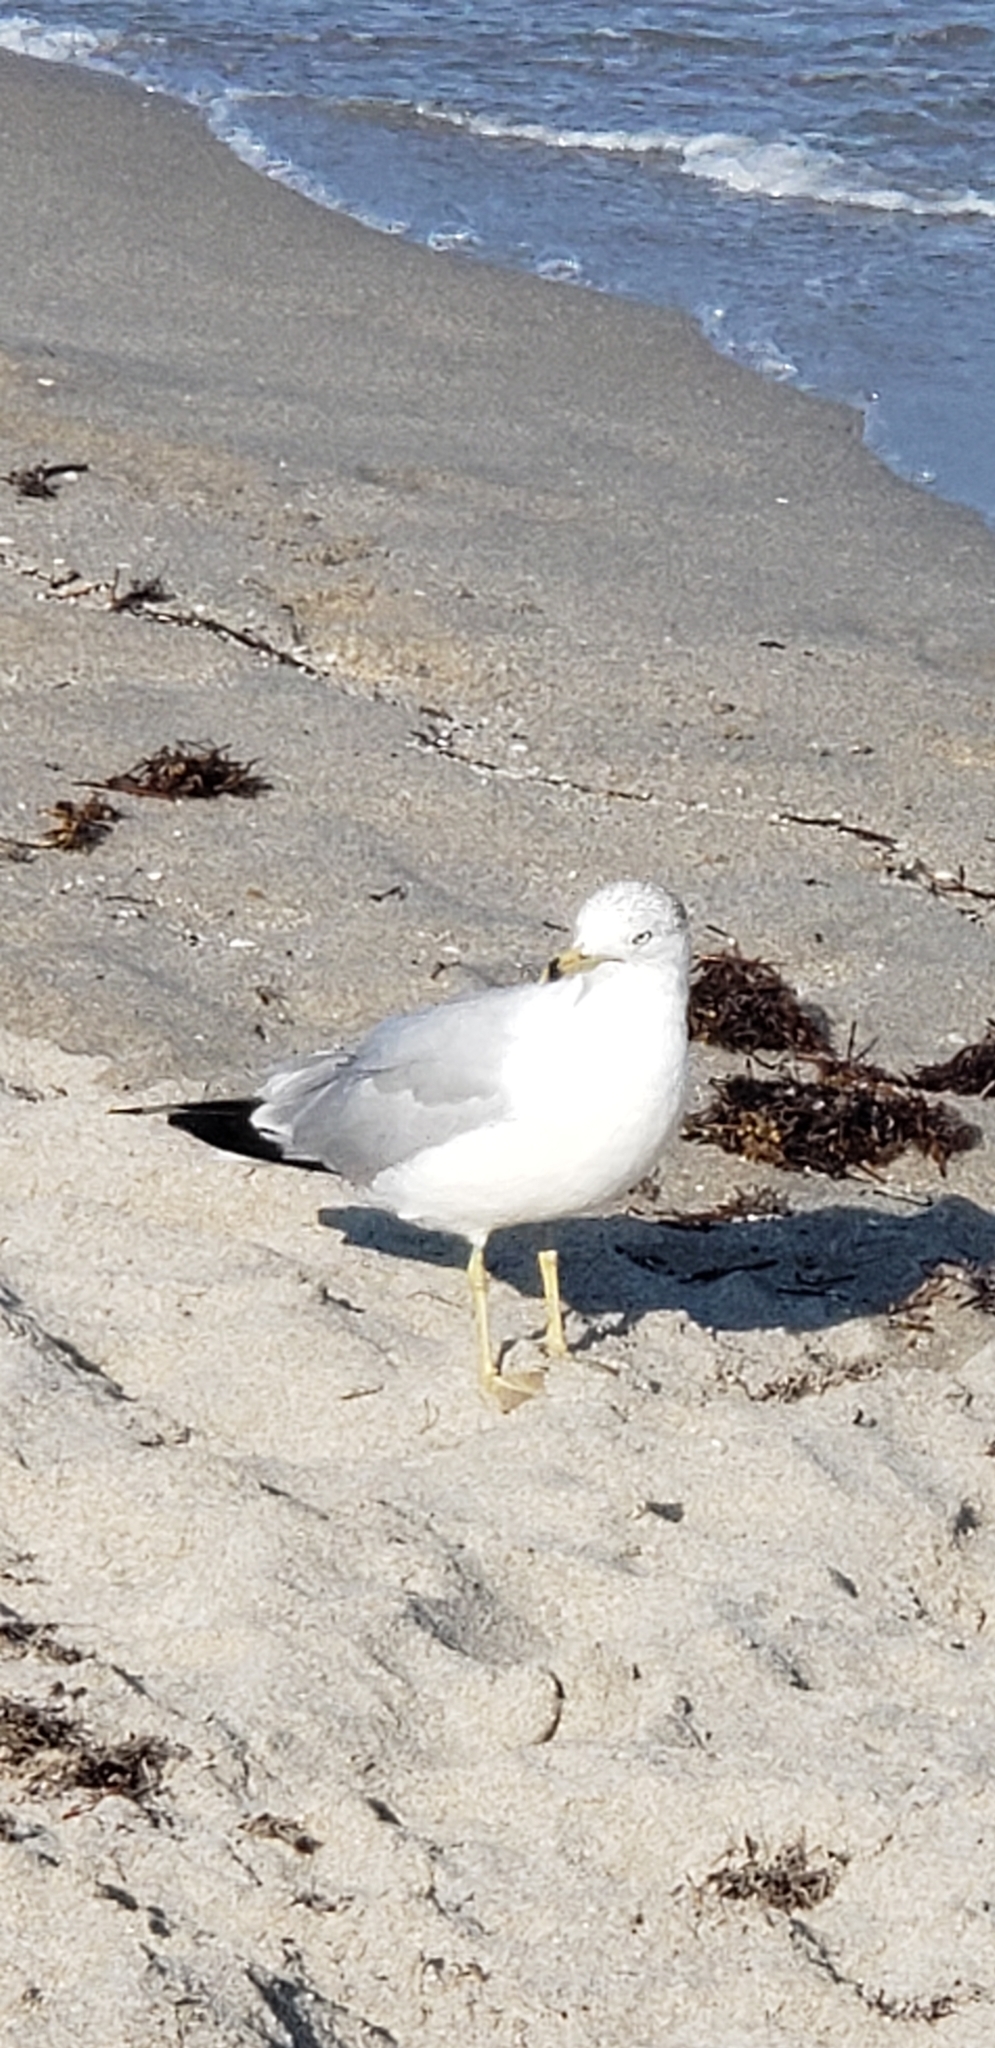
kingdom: Animalia
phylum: Chordata
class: Aves
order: Charadriiformes
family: Laridae
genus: Larus
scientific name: Larus delawarensis
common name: Ring-billed gull
